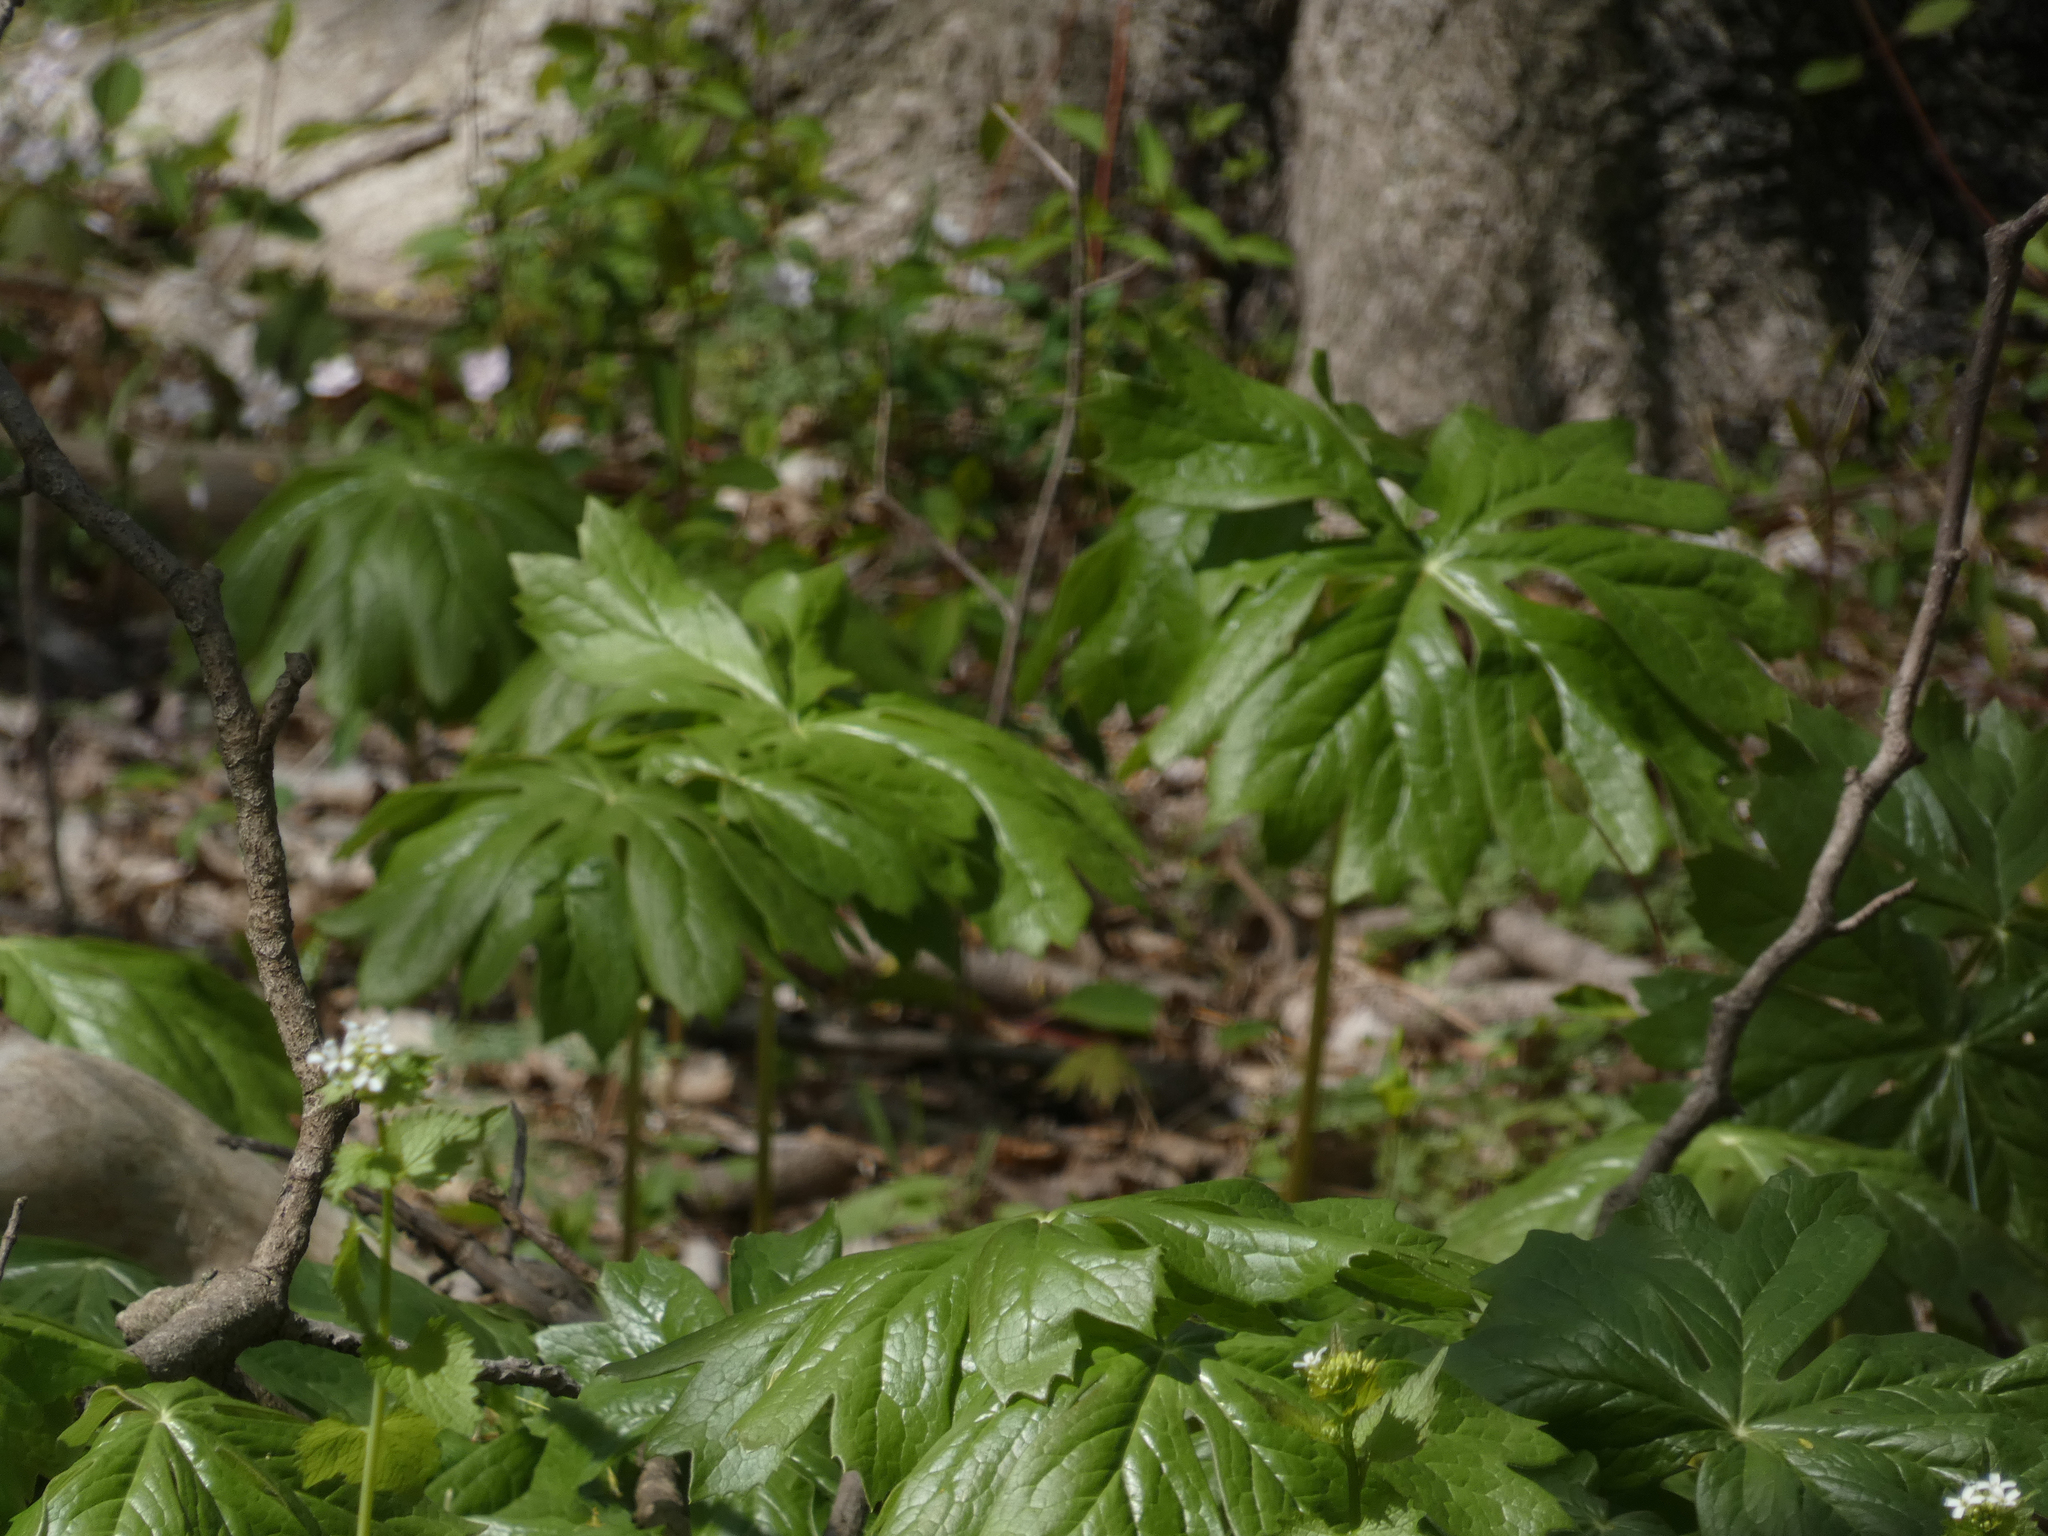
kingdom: Plantae
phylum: Tracheophyta
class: Magnoliopsida
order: Ranunculales
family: Berberidaceae
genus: Podophyllum
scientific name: Podophyllum peltatum
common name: Wild mandrake
